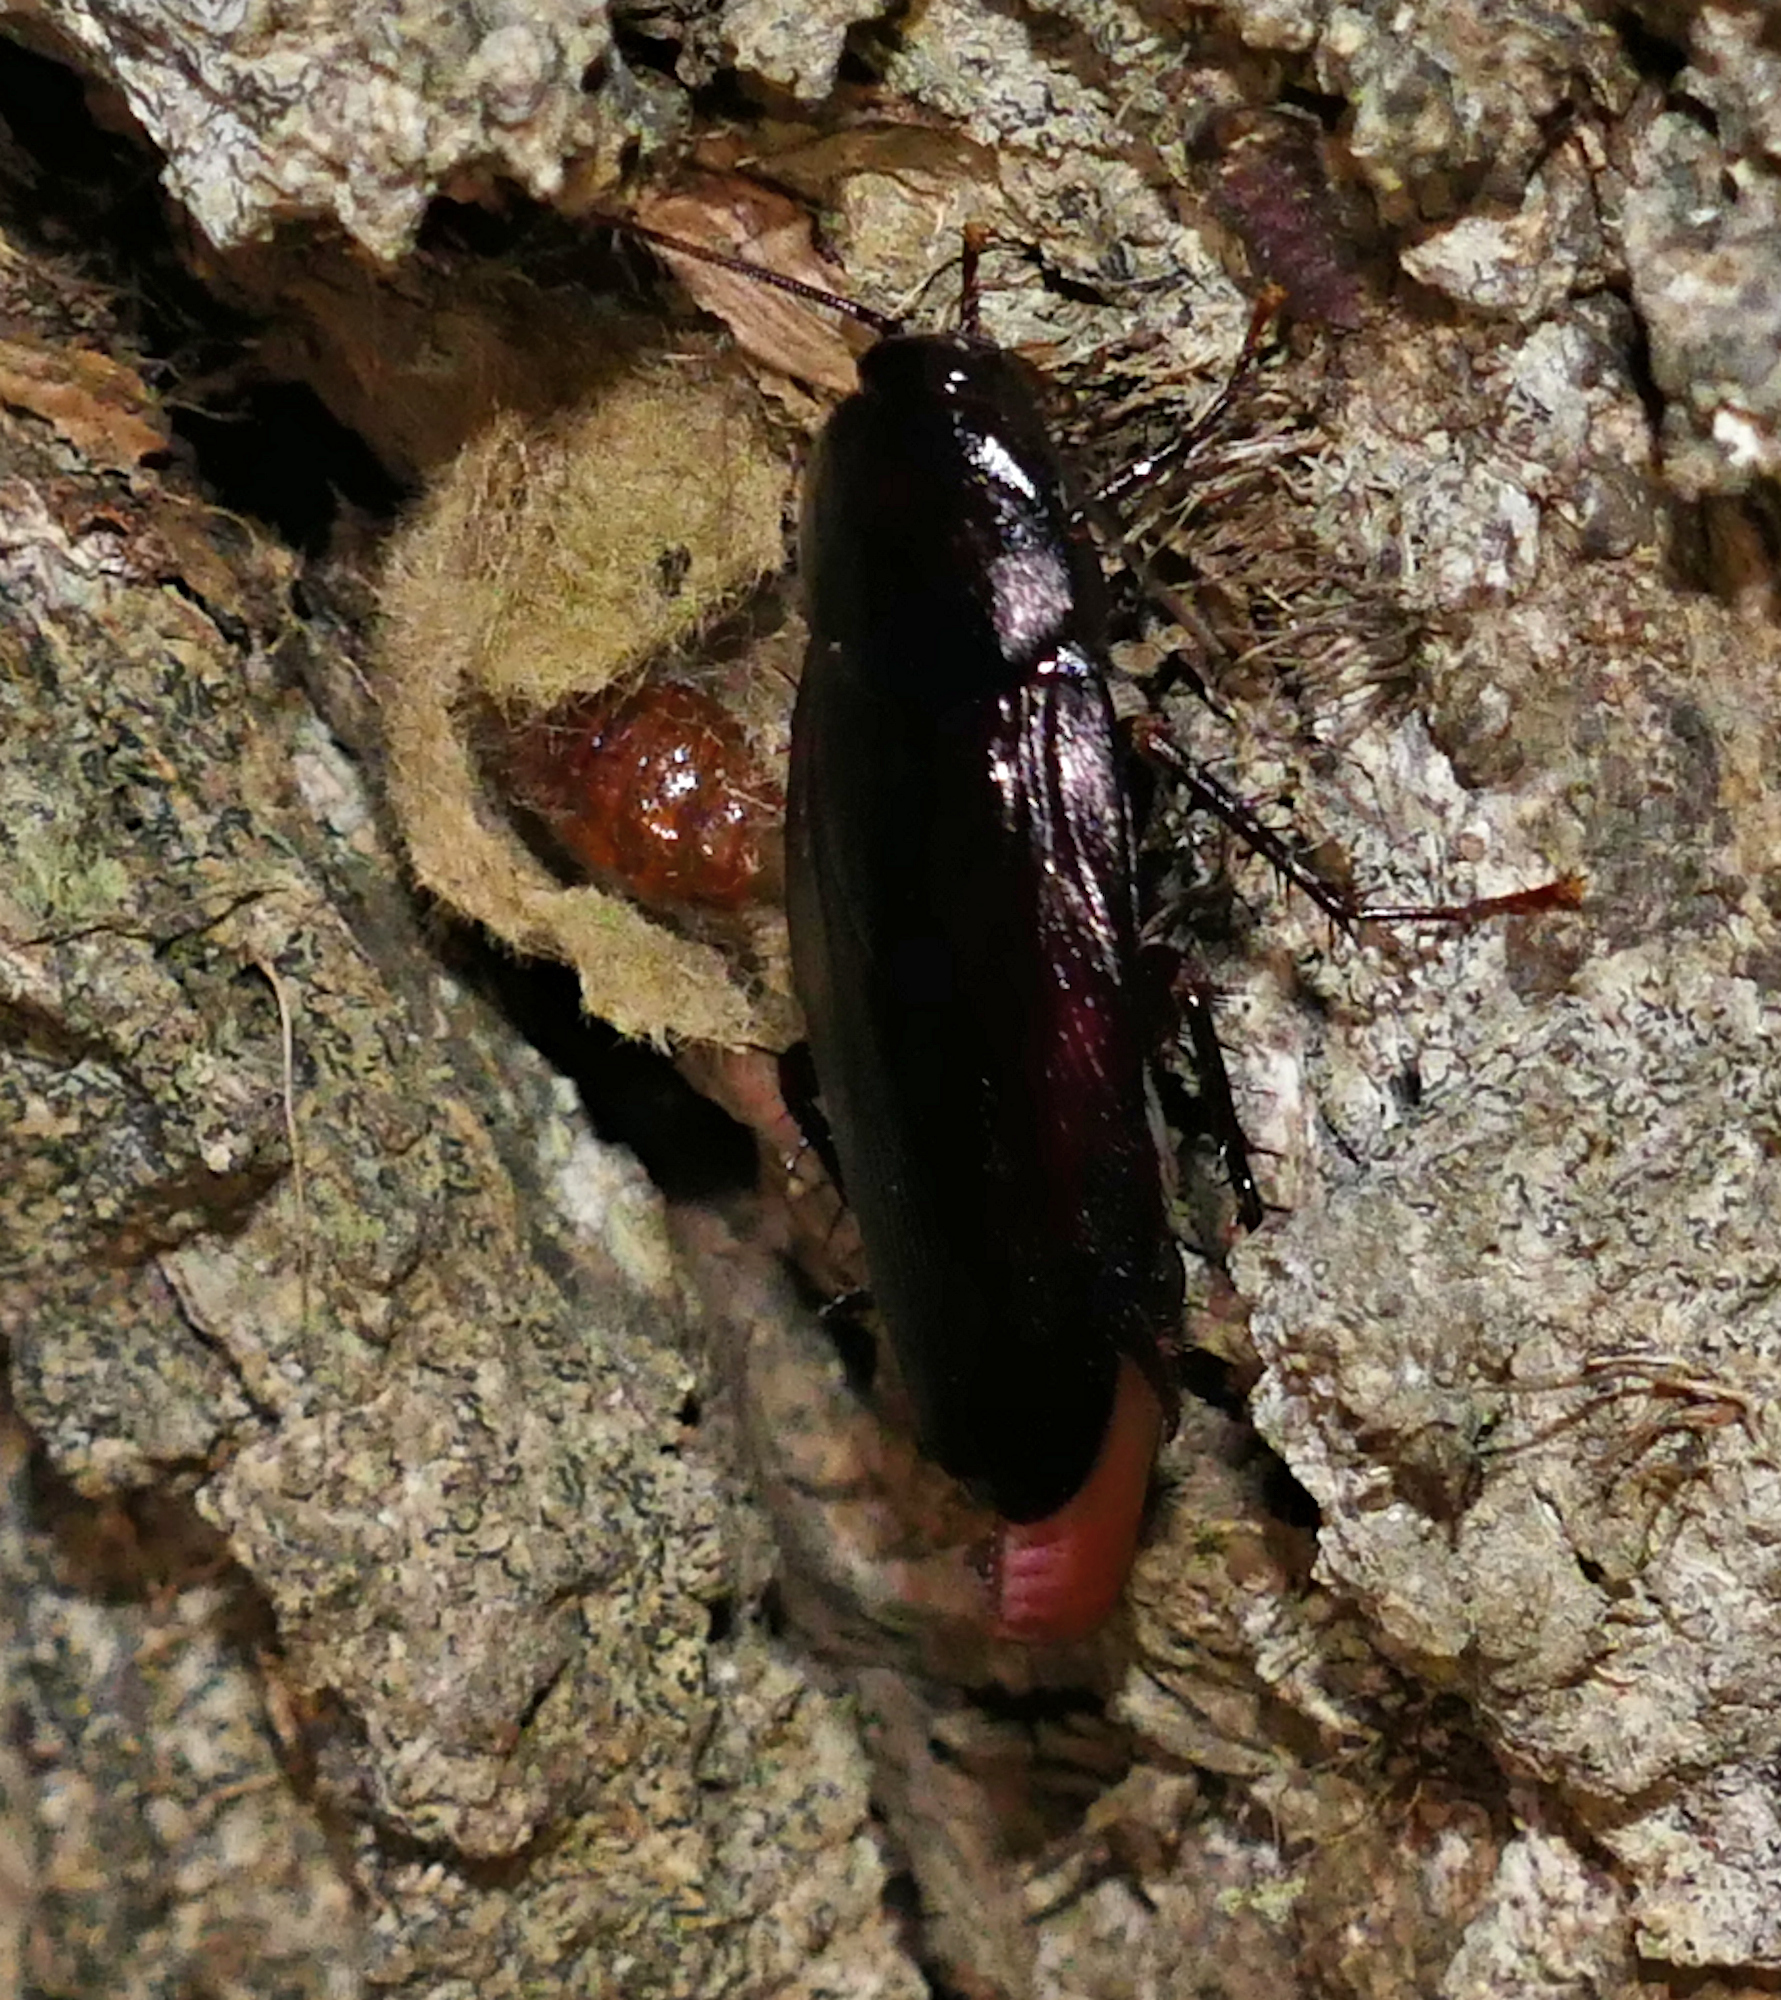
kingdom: Animalia
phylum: Arthropoda
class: Insecta
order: Blattodea
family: Blattidae
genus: Periplaneta
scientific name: Periplaneta fuliginosa
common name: Smokeybrown cockroad
